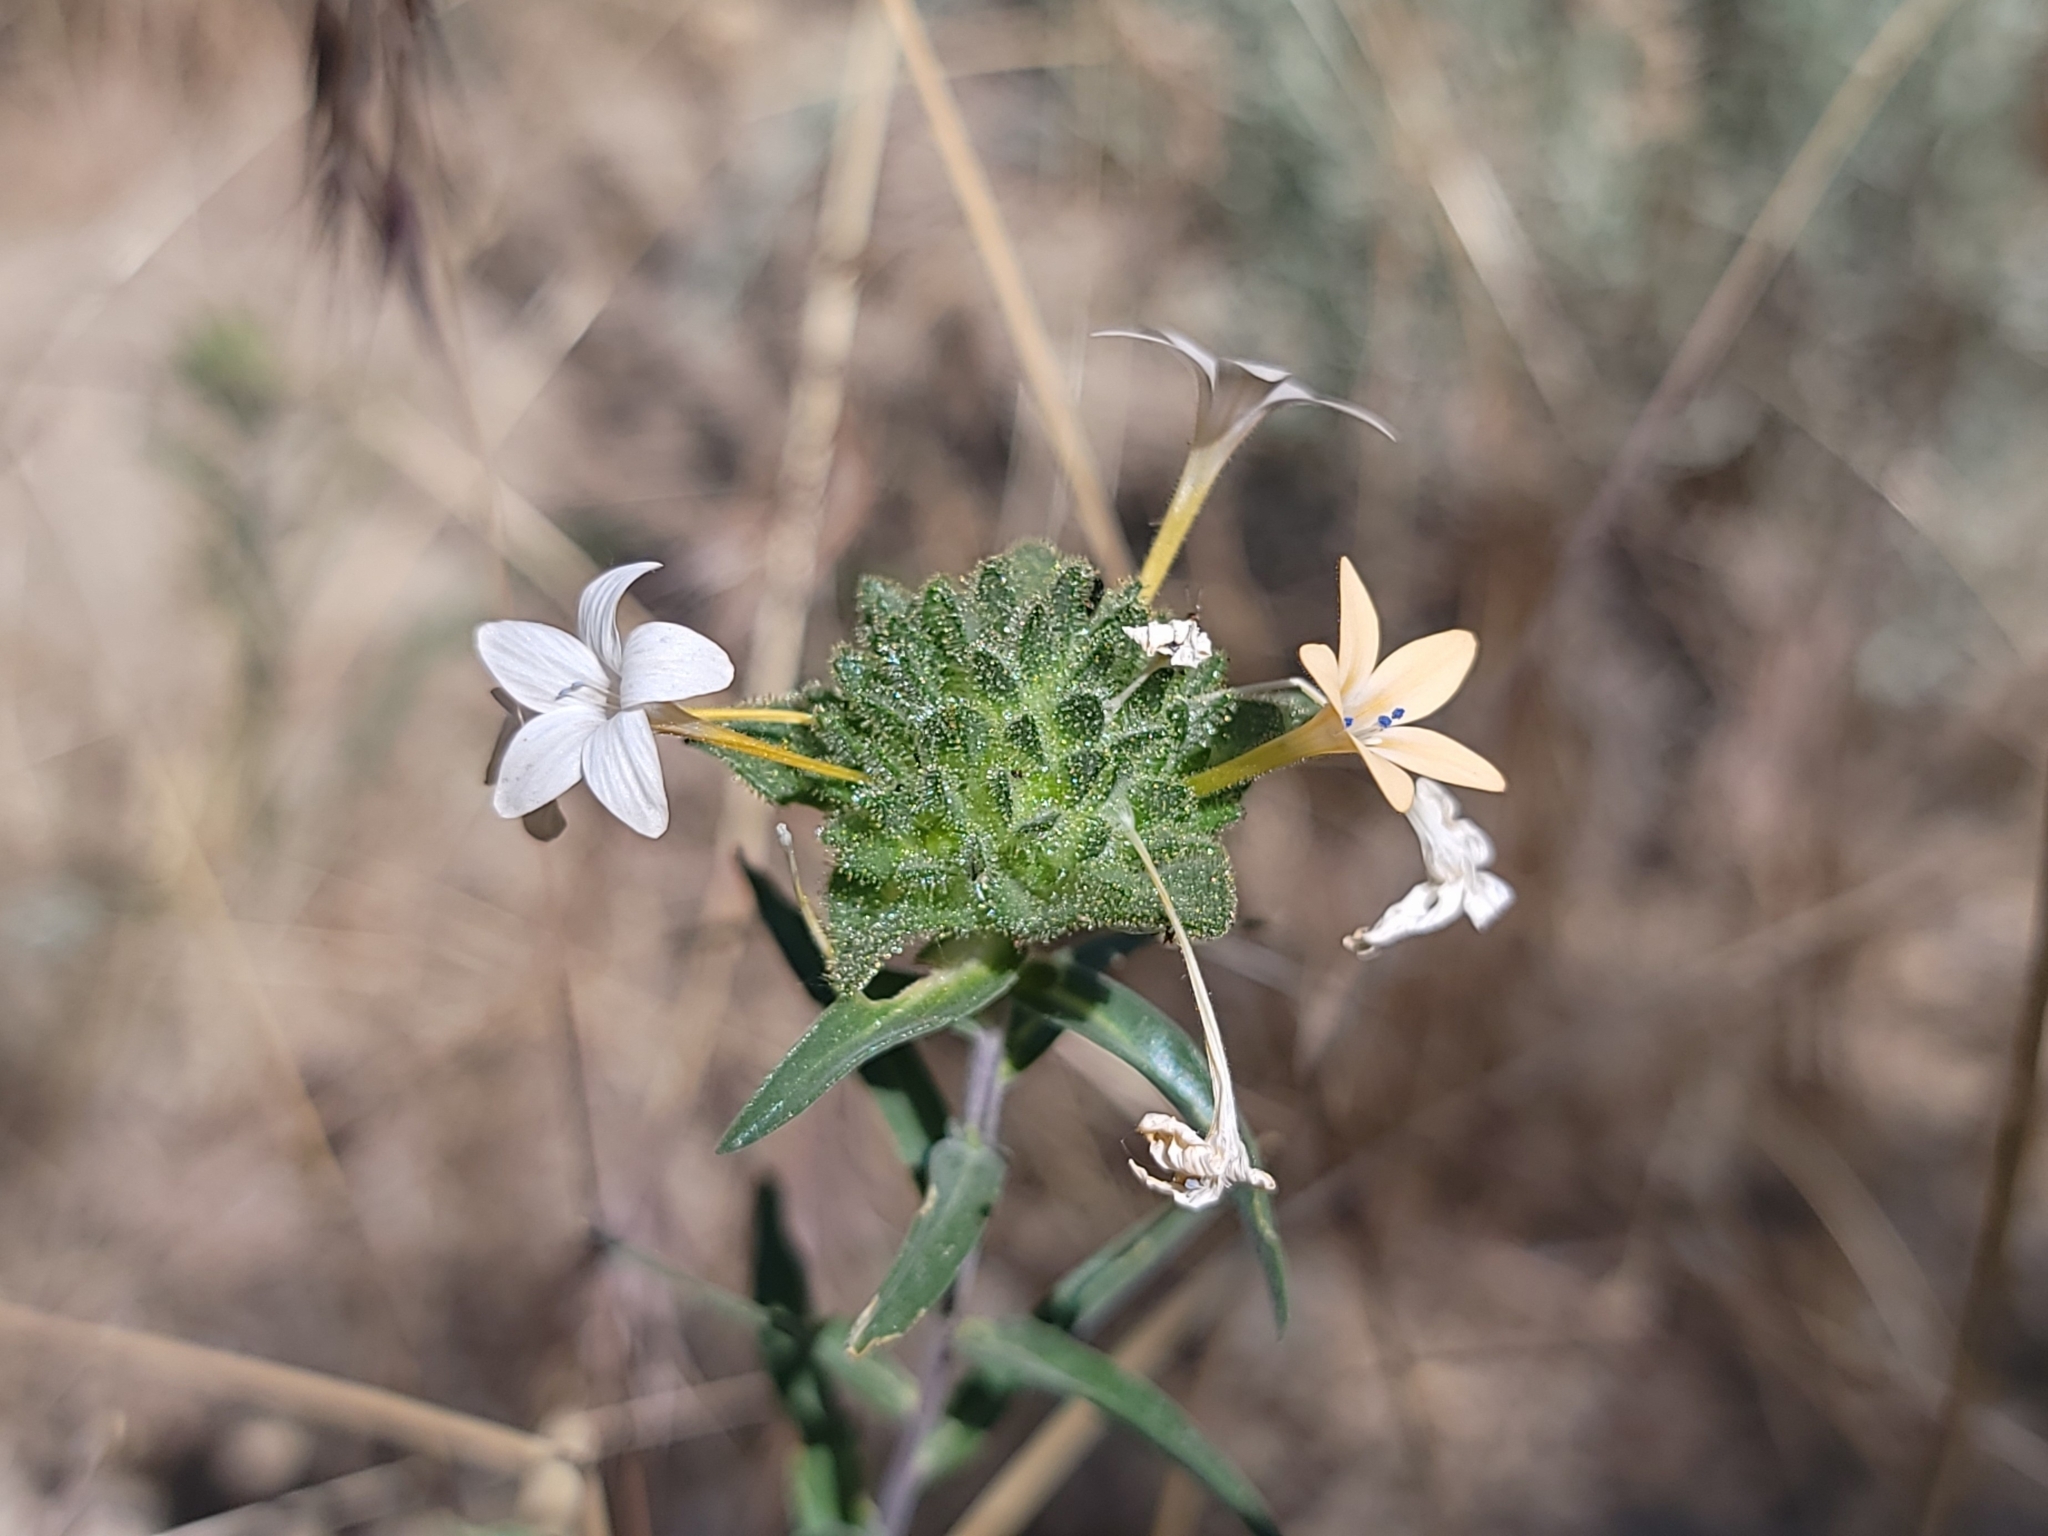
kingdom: Plantae
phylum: Tracheophyta
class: Magnoliopsida
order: Ericales
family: Polemoniaceae
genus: Collomia
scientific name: Collomia grandiflora
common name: California strawflower
